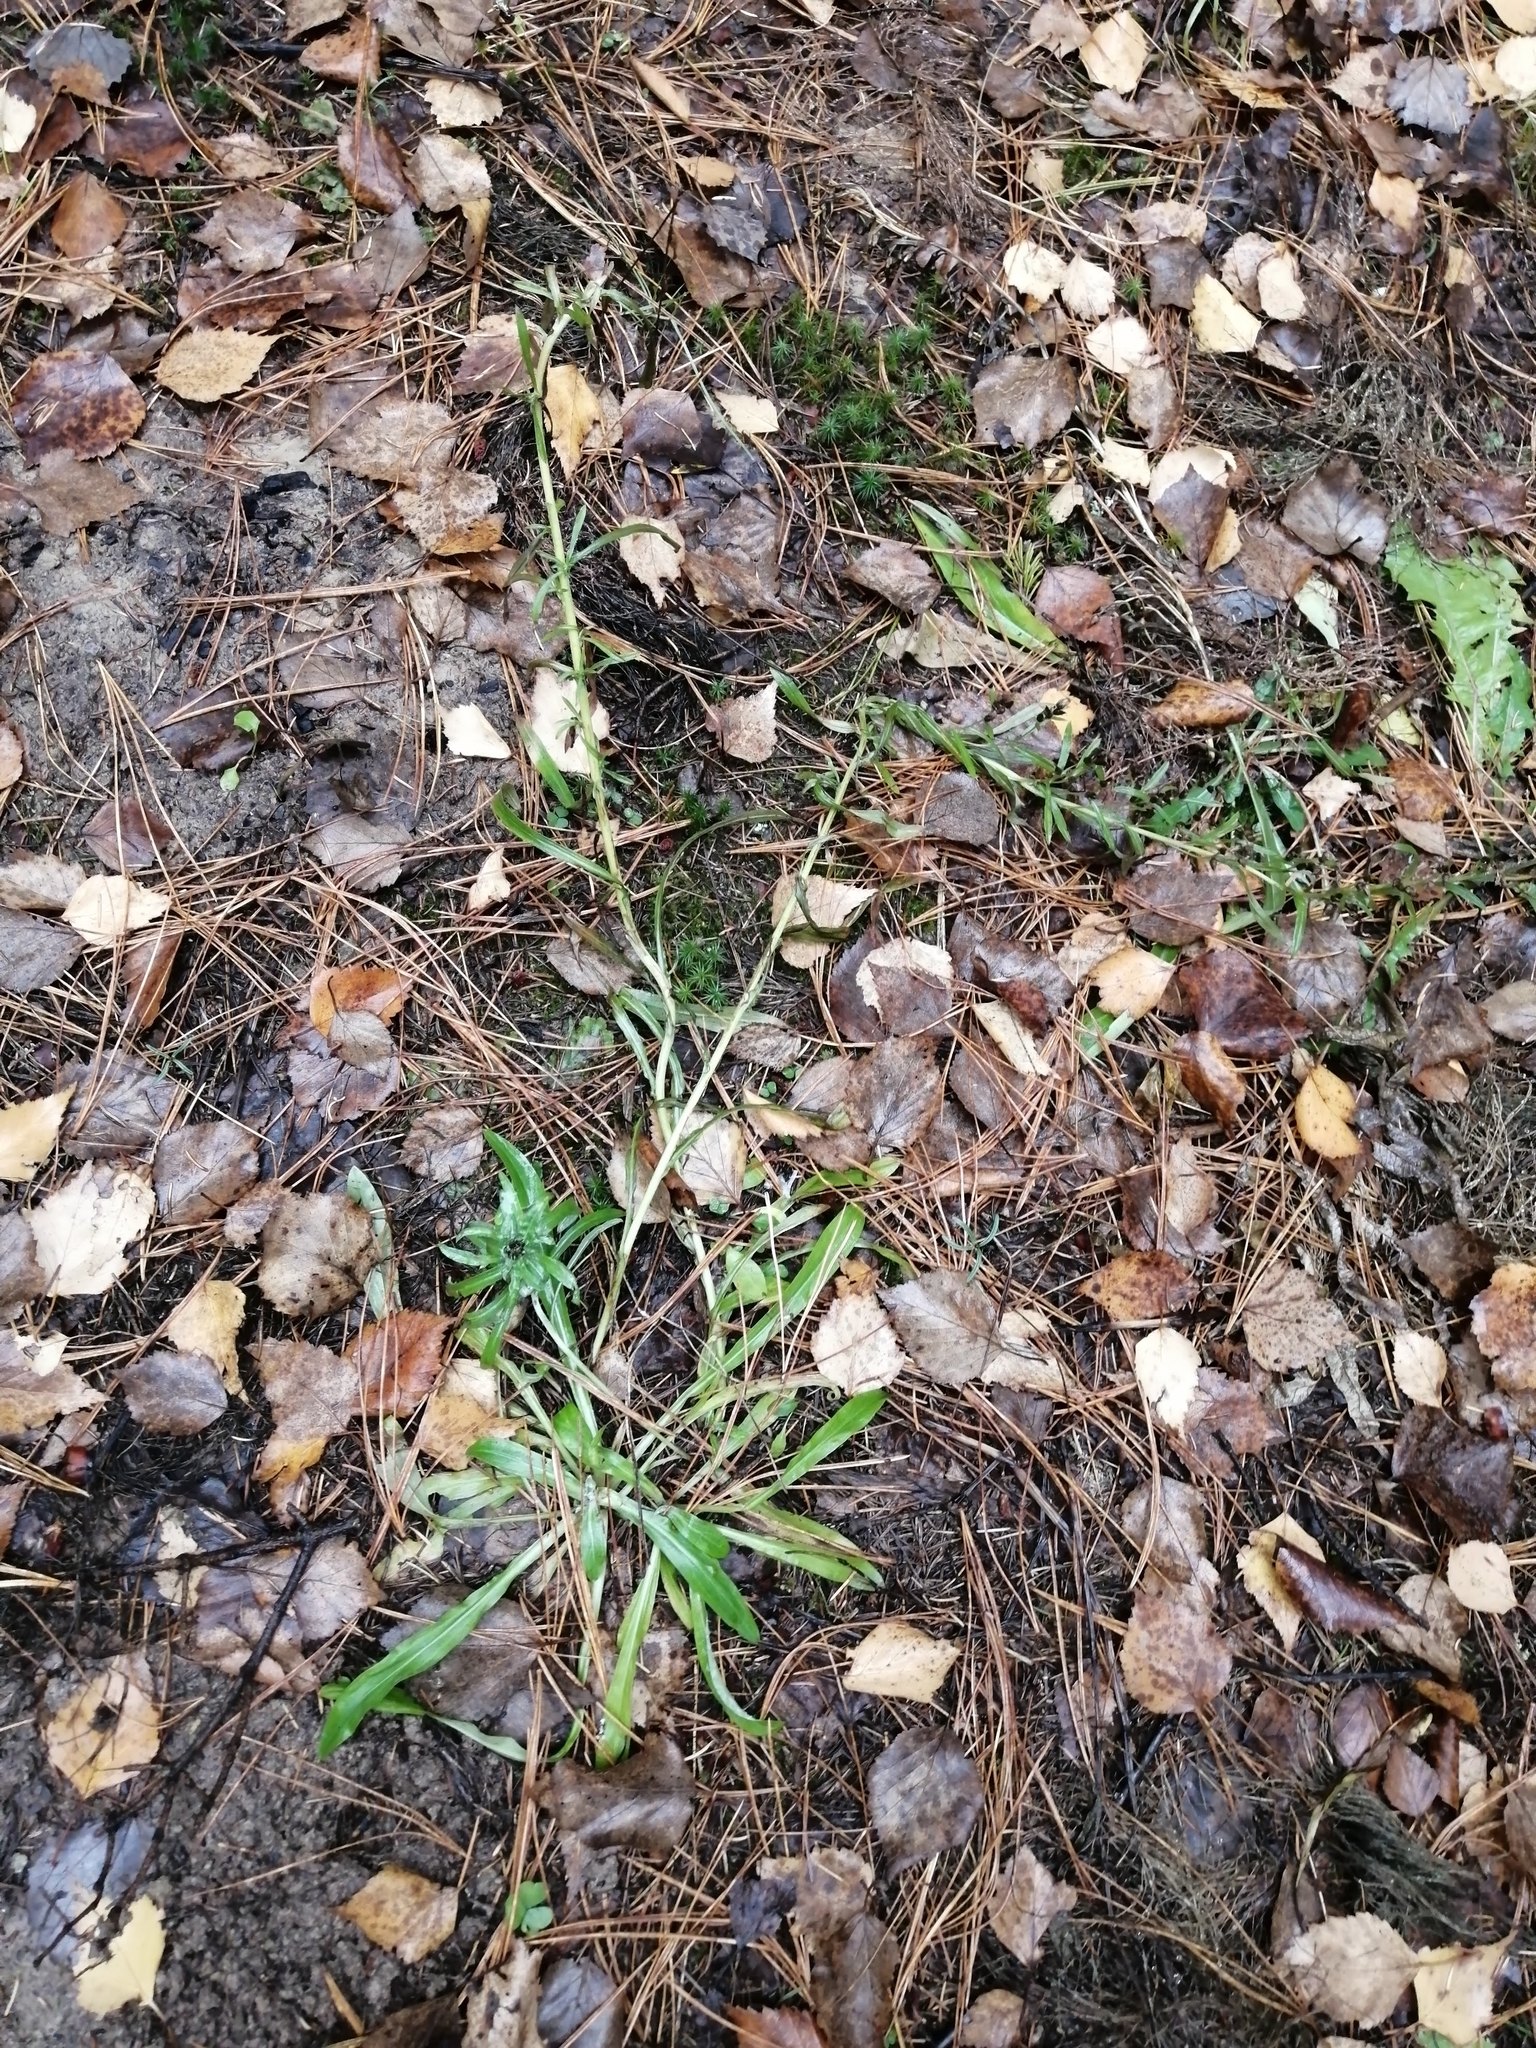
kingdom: Plantae
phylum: Tracheophyta
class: Magnoliopsida
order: Asterales
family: Asteraceae
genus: Omalotheca
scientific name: Omalotheca sylvatica
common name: Heath cudweed
